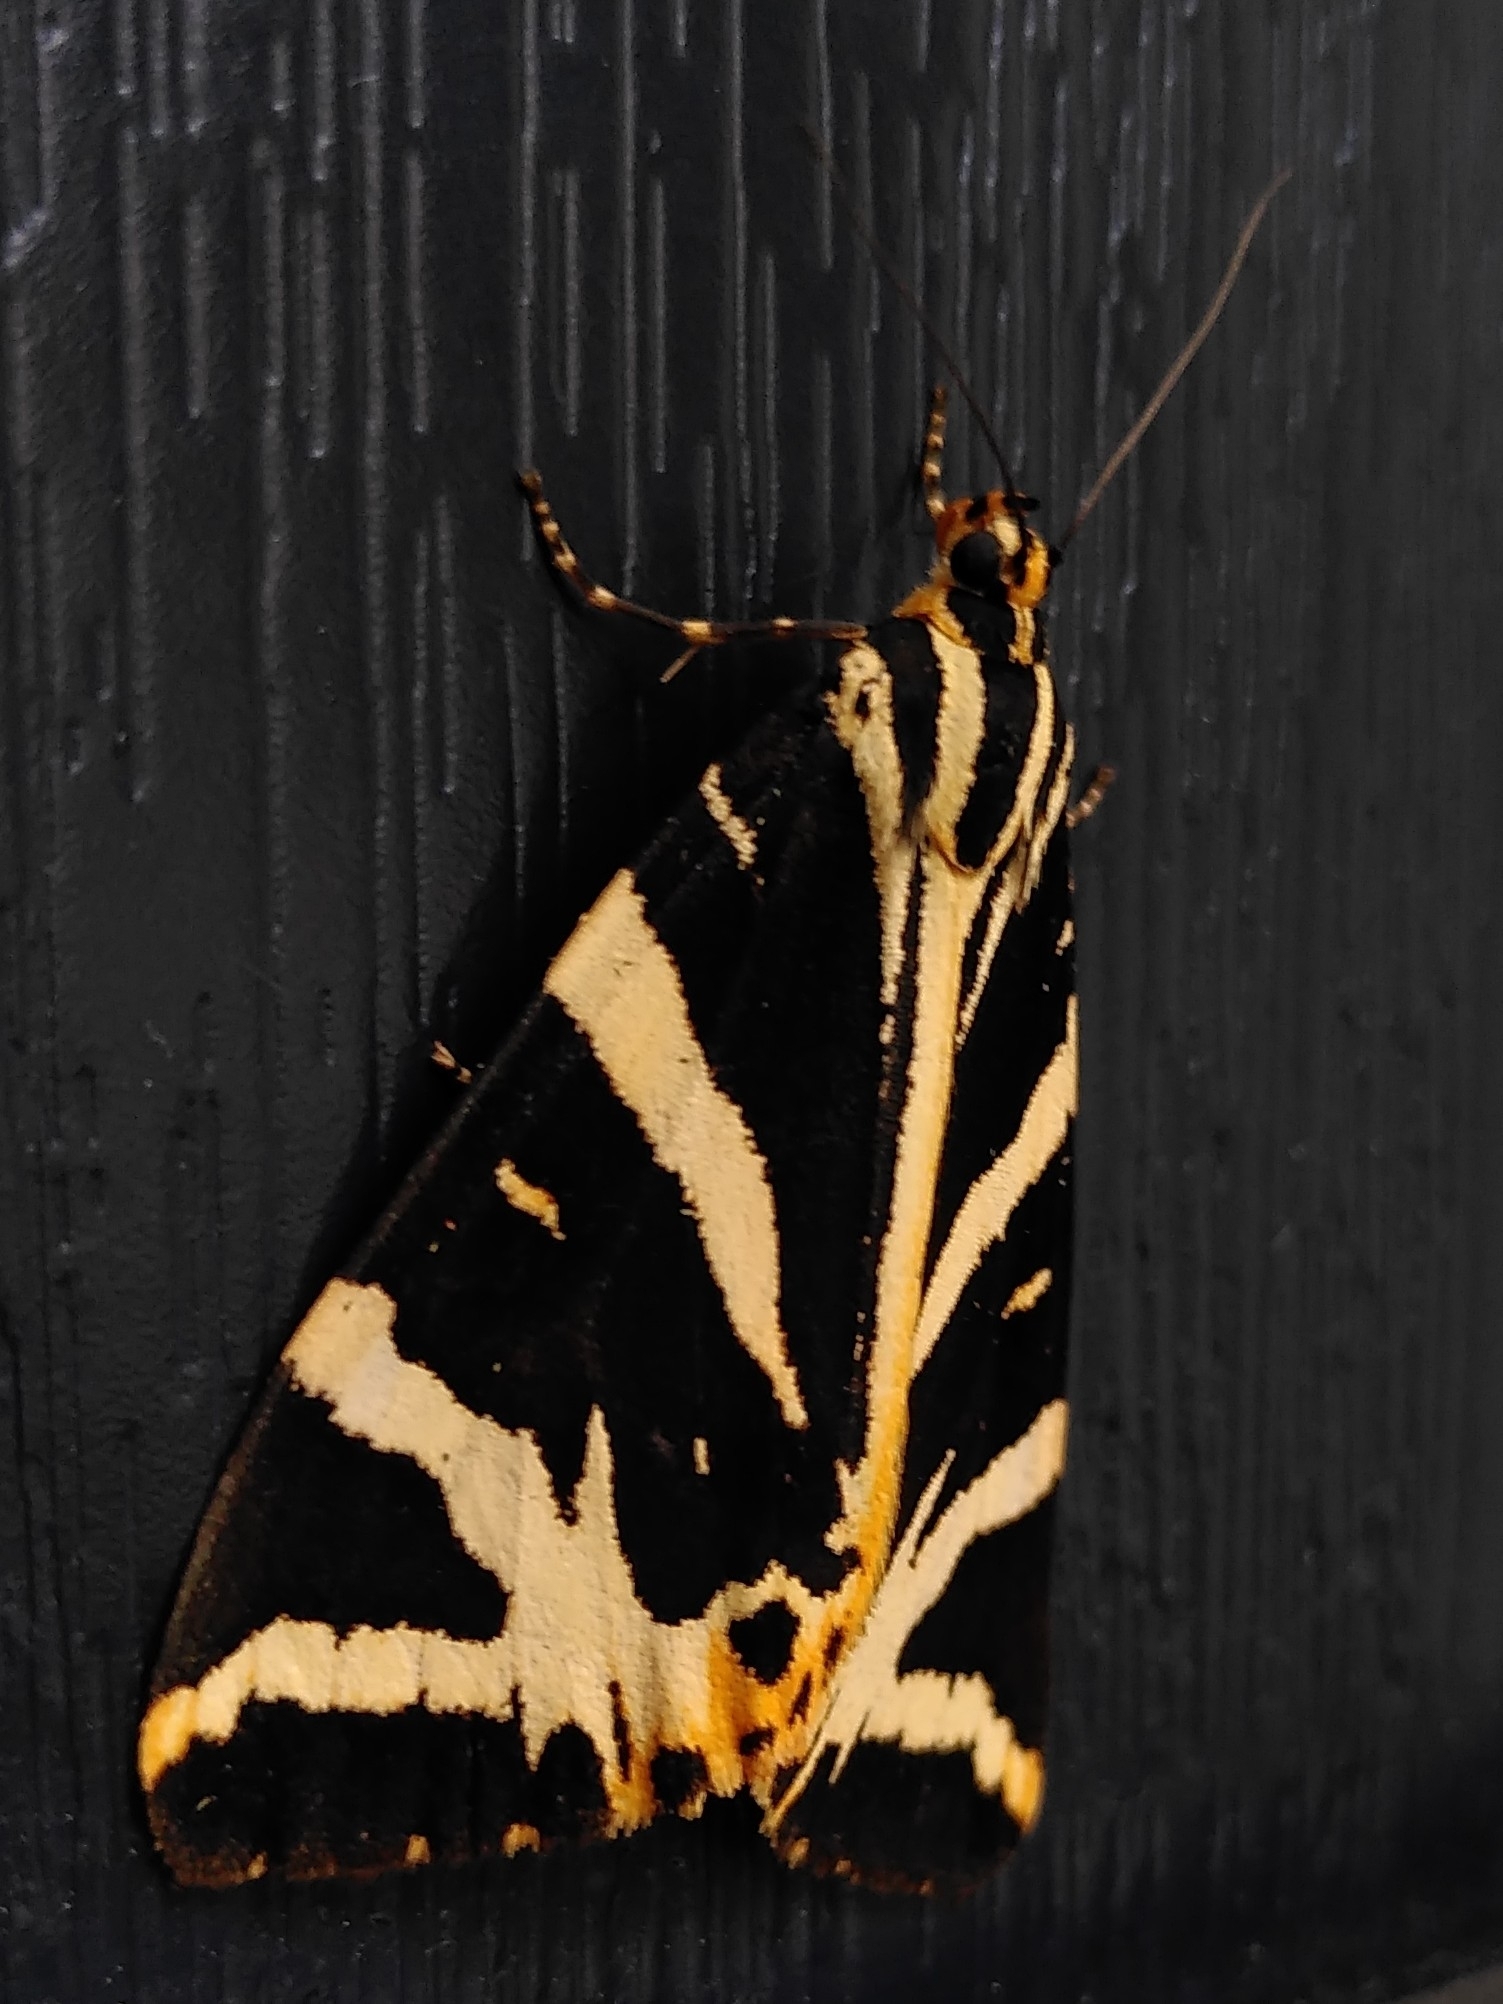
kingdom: Animalia
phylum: Arthropoda
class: Insecta
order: Lepidoptera
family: Erebidae
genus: Euplagia
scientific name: Euplagia quadripunctaria
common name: Jersey tiger
